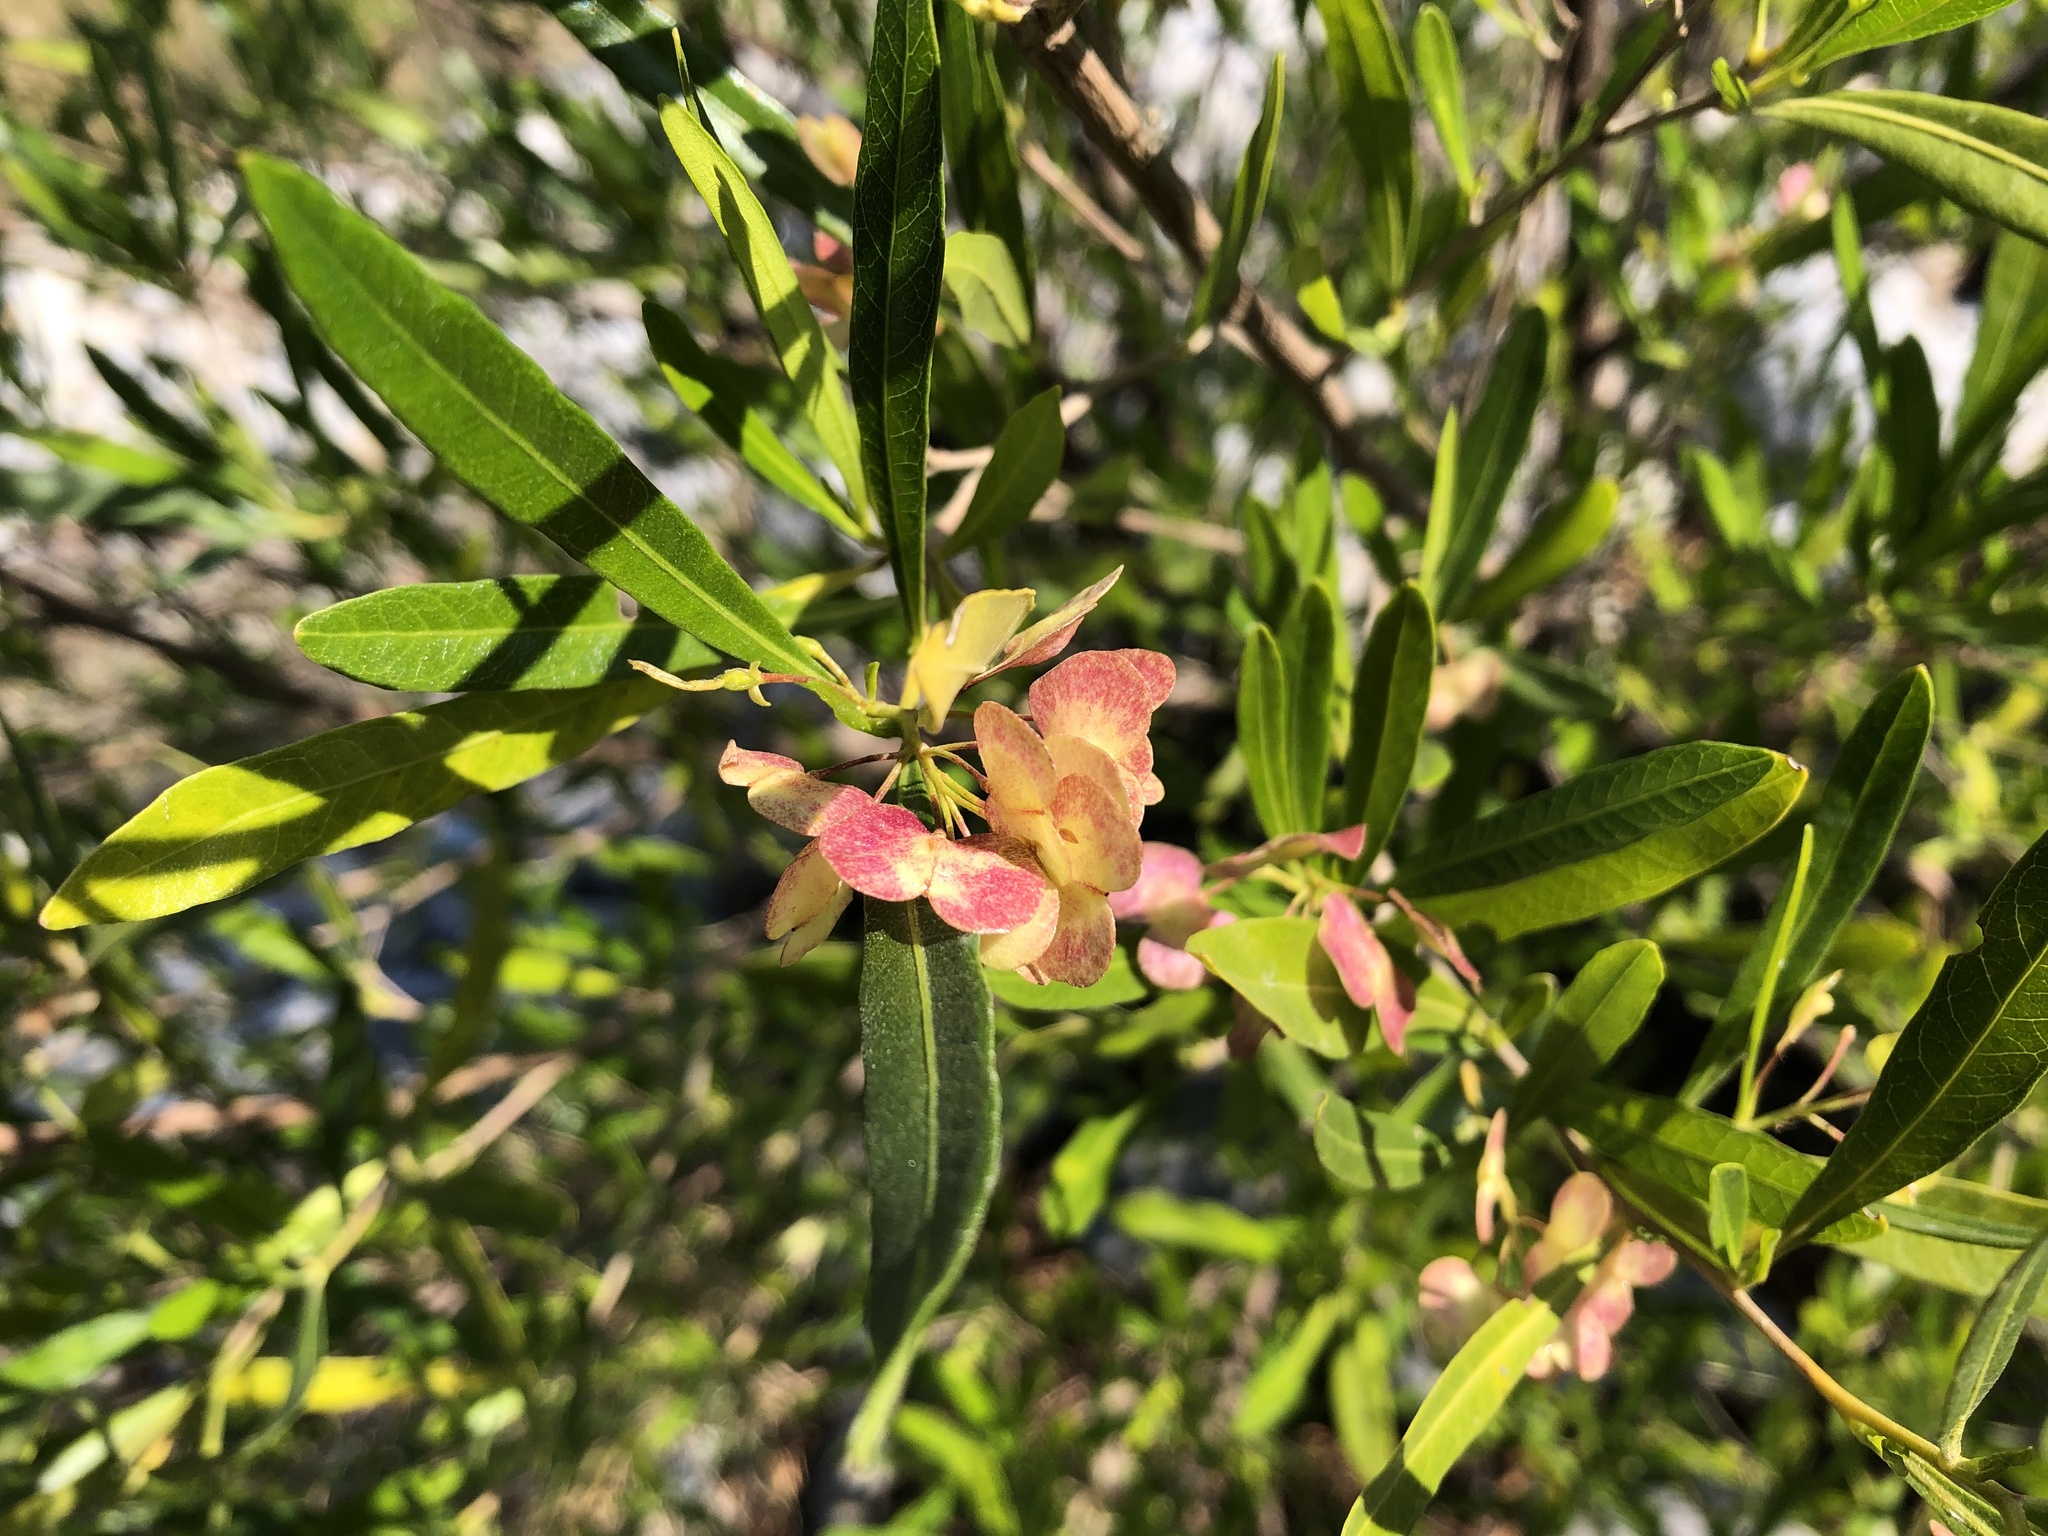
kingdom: Plantae
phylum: Tracheophyta
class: Magnoliopsida
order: Sapindales
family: Sapindaceae
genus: Dodonaea
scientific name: Dodonaea viscosa
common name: Hopbush
